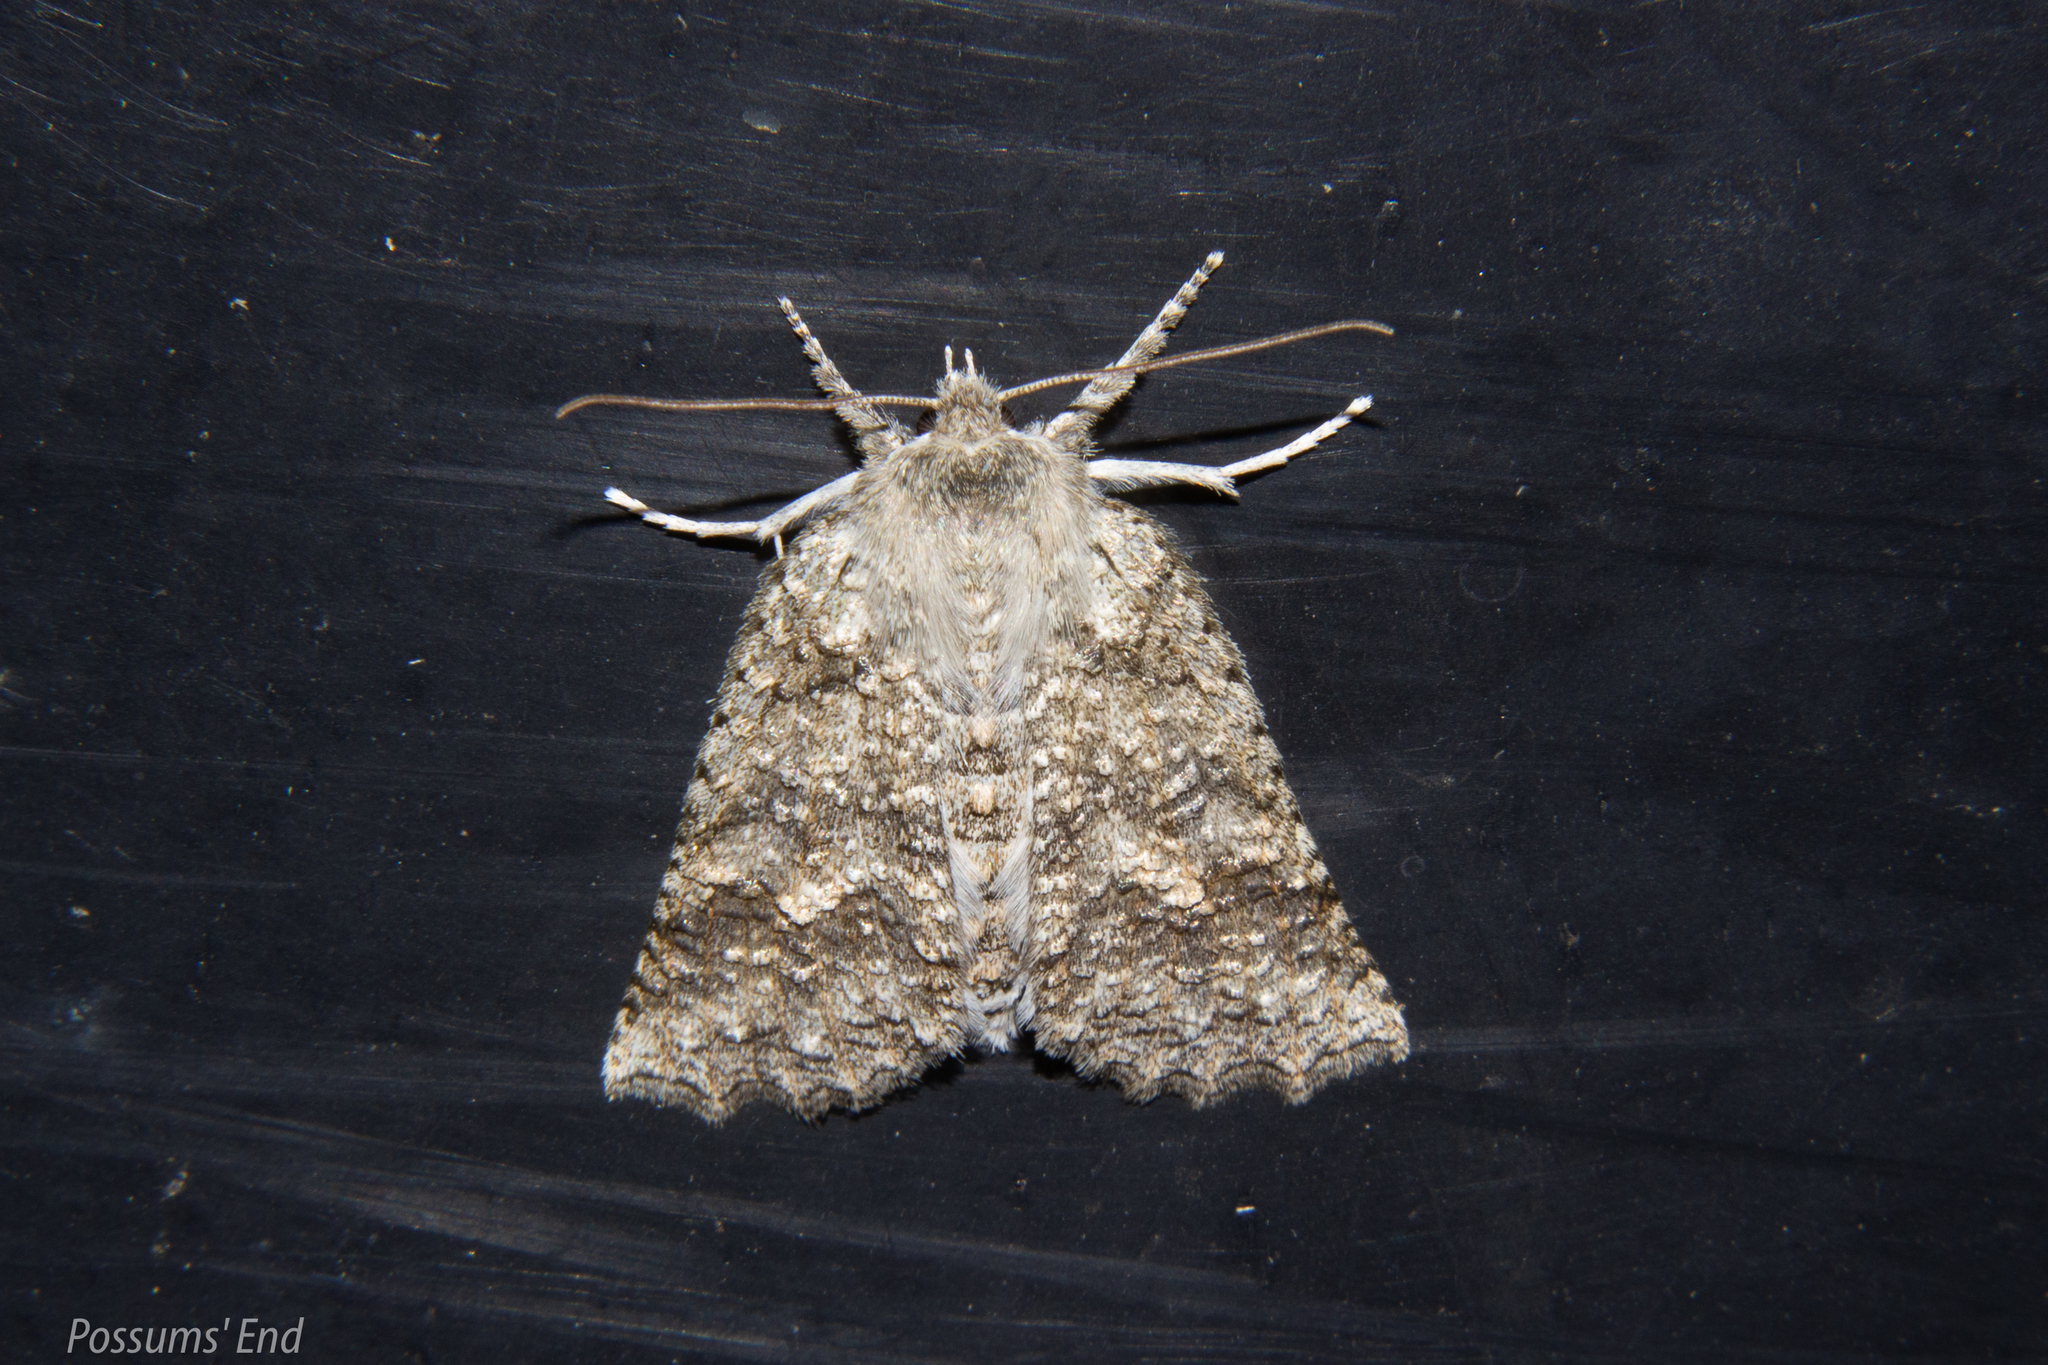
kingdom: Animalia
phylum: Arthropoda
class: Insecta
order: Lepidoptera
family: Geometridae
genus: Declana
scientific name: Declana floccosa
